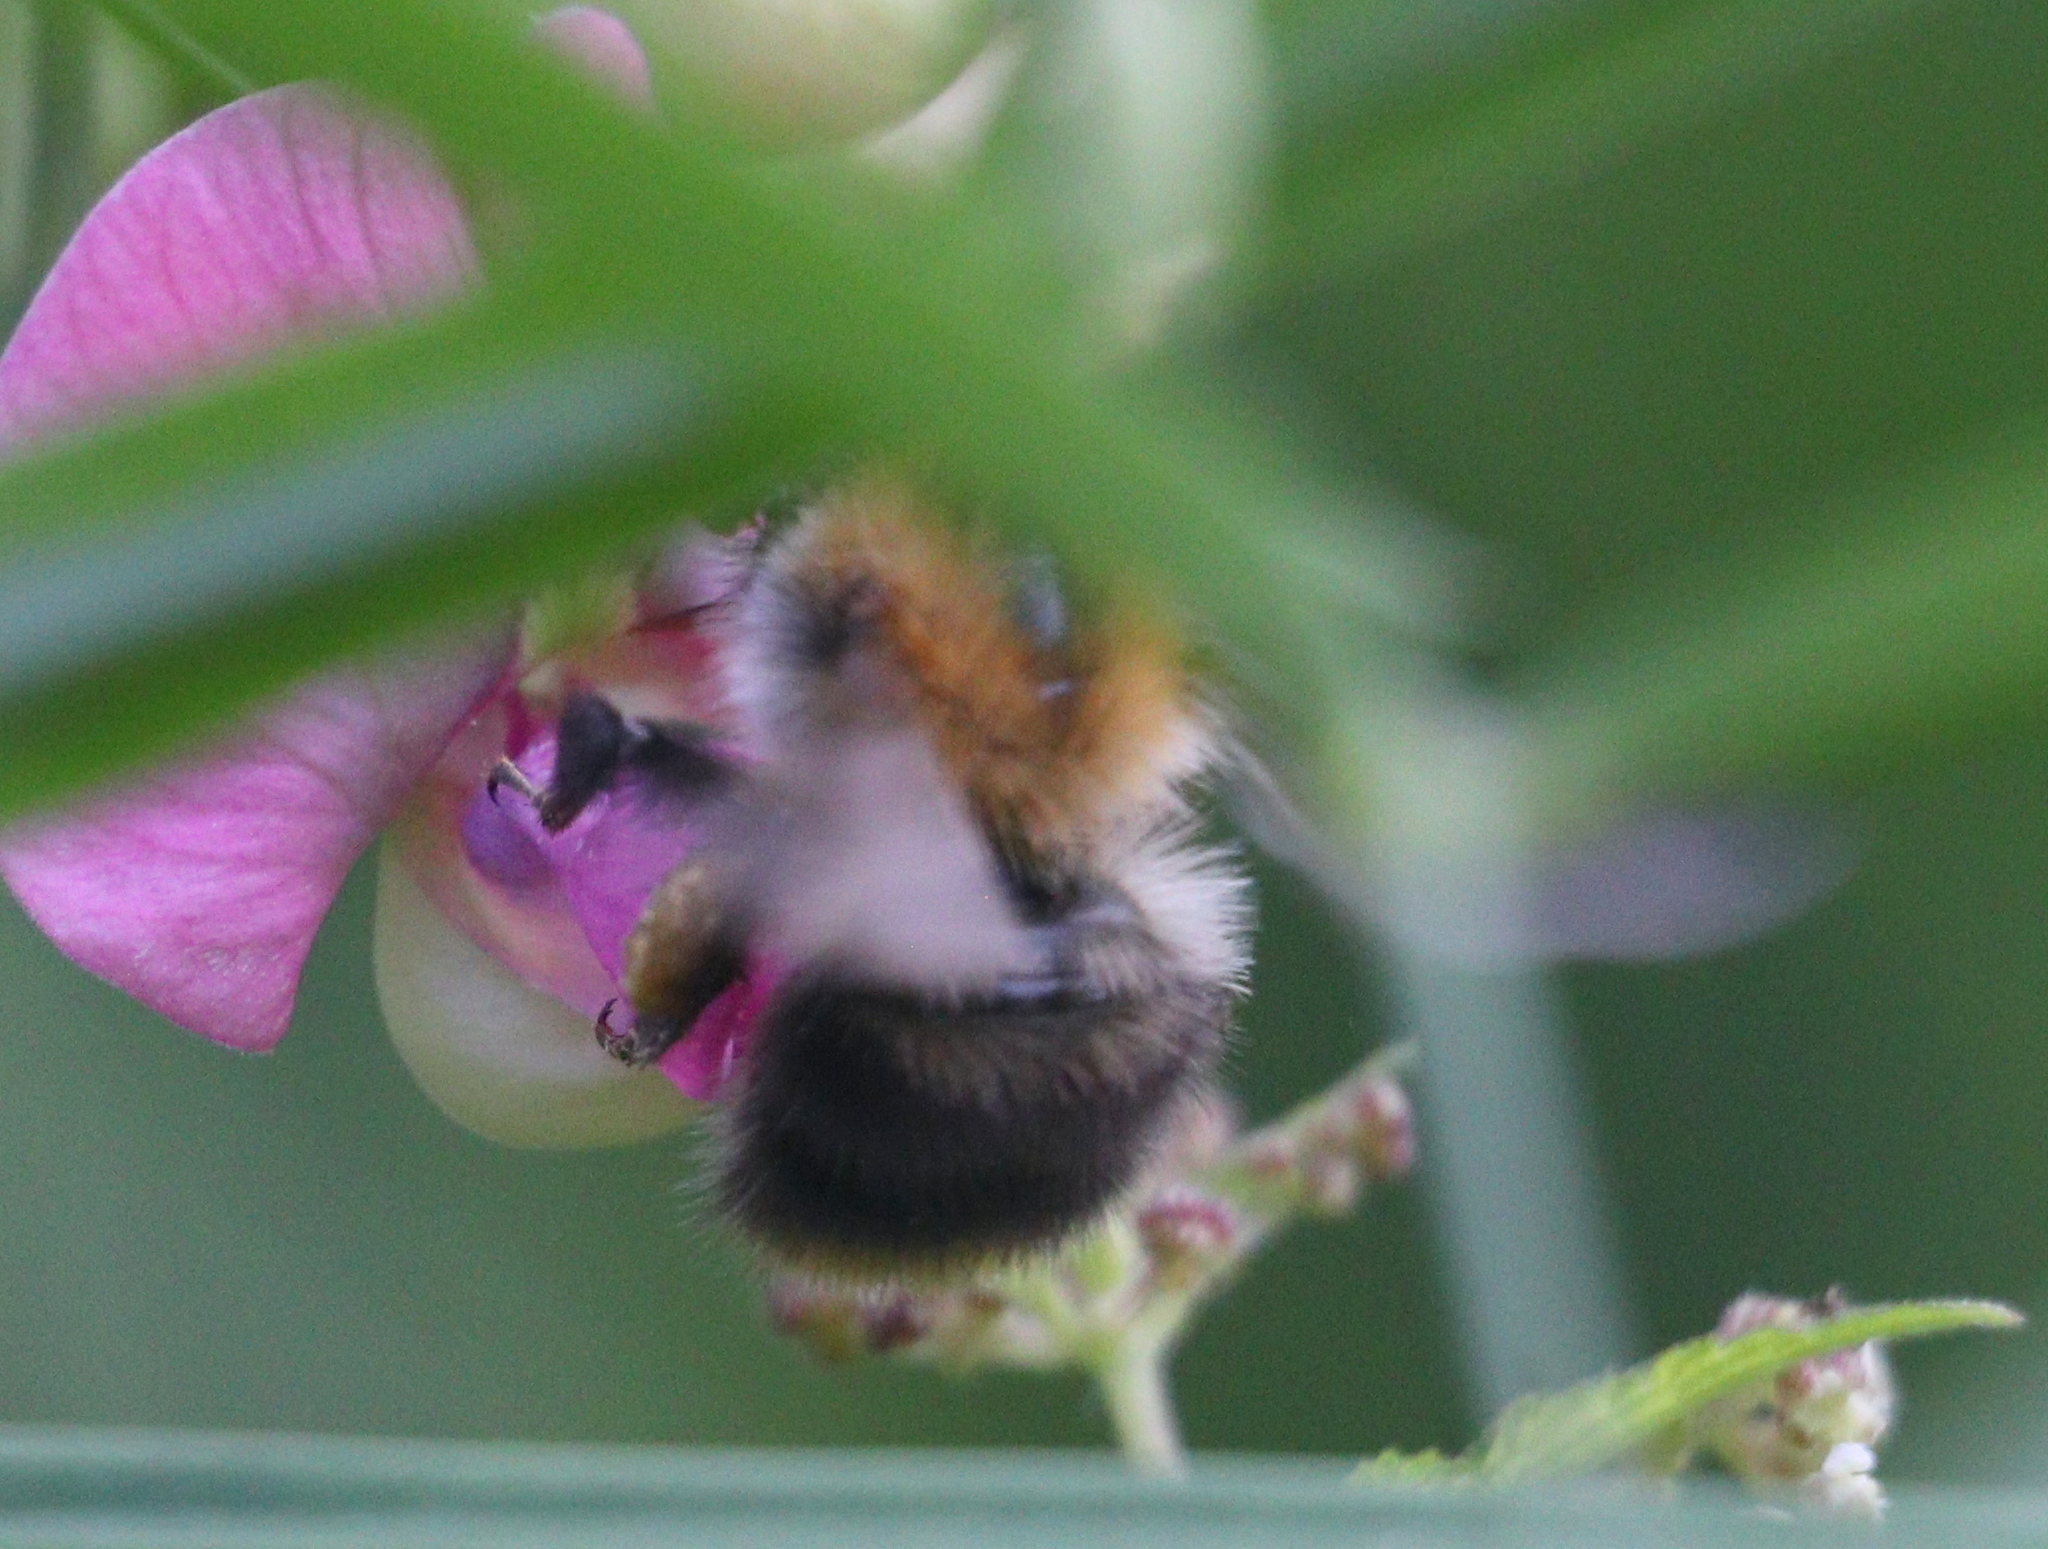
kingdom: Animalia
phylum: Arthropoda
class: Insecta
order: Hymenoptera
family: Apidae
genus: Bombus
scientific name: Bombus pascuorum
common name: Common carder bee
